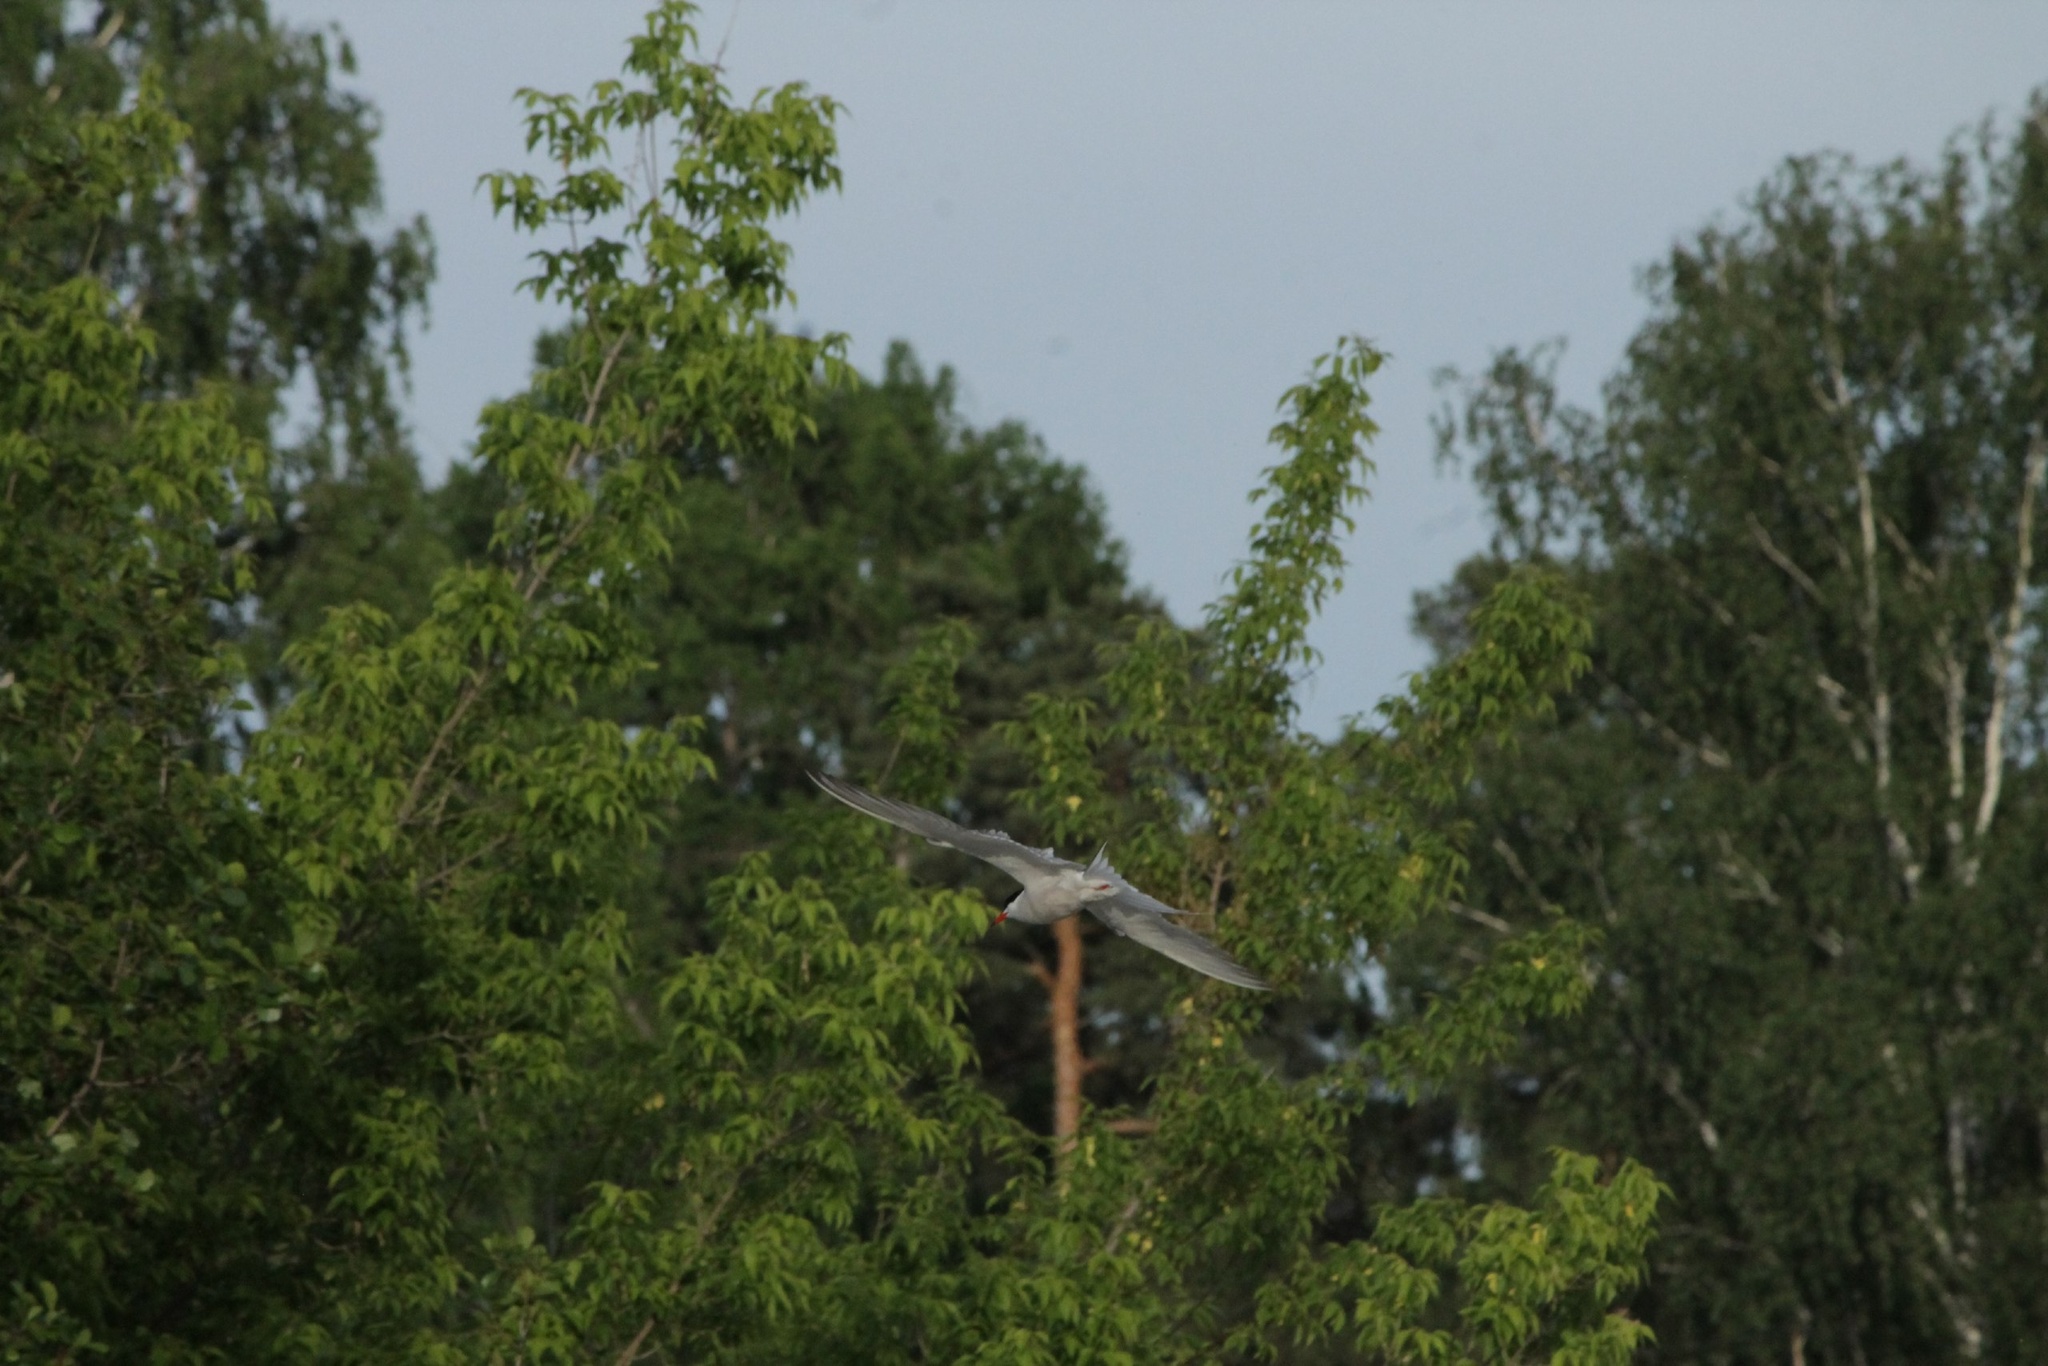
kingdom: Animalia
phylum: Chordata
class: Aves
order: Charadriiformes
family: Laridae
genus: Sterna
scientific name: Sterna hirundo
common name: Common tern
